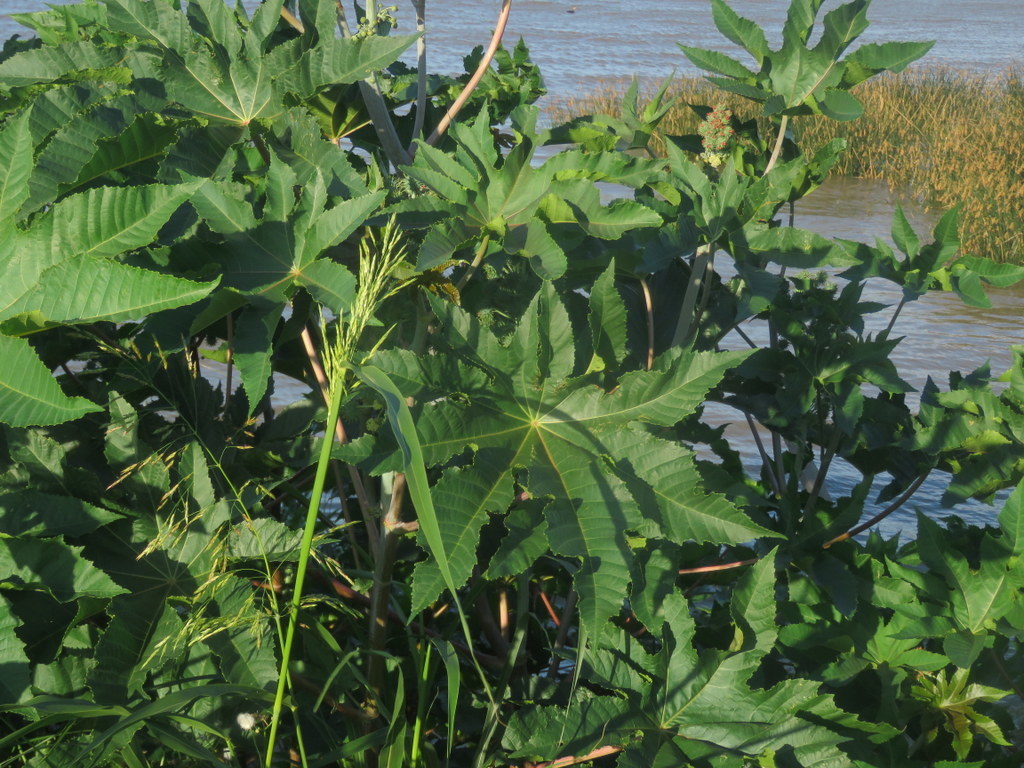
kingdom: Plantae
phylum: Tracheophyta
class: Magnoliopsida
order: Malpighiales
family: Euphorbiaceae
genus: Ricinus
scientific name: Ricinus communis
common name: Castor-oil-plant
